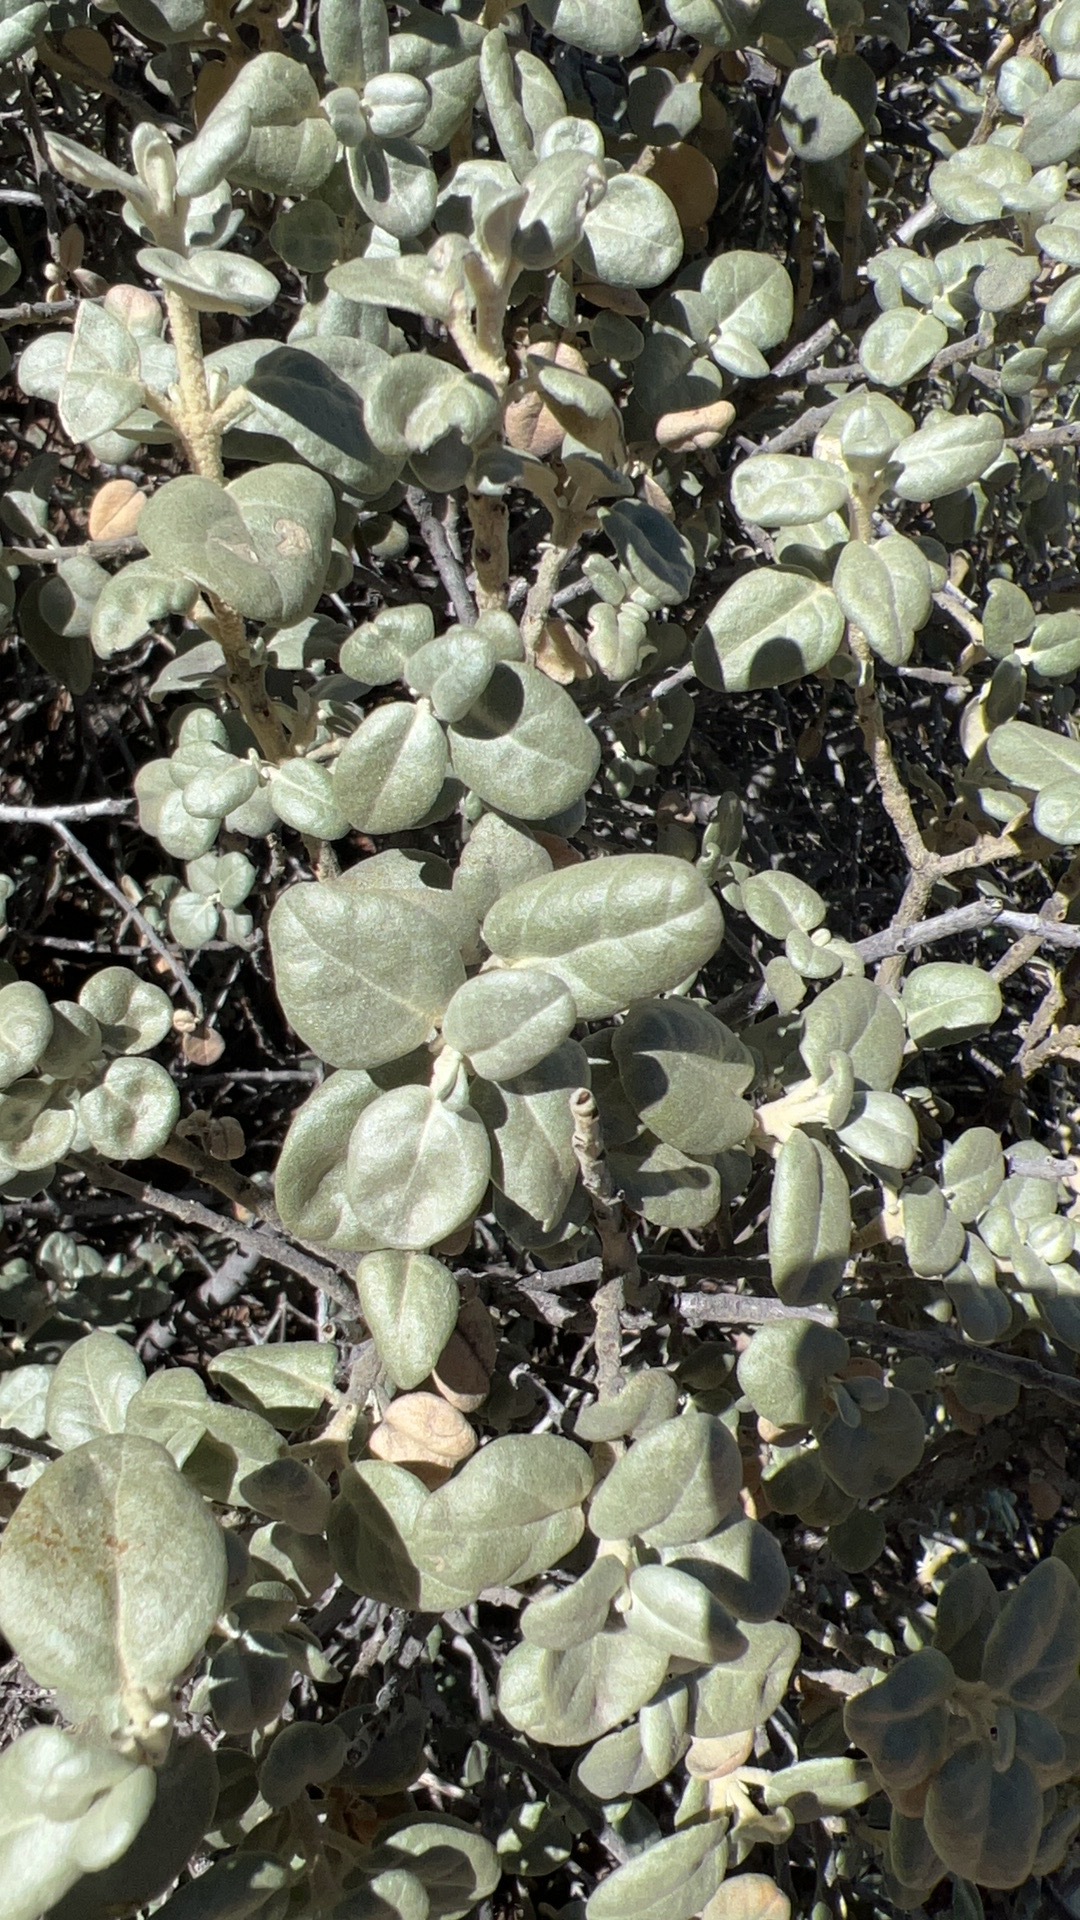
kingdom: Plantae
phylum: Tracheophyta
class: Magnoliopsida
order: Rosales
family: Elaeagnaceae
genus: Shepherdia
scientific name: Shepherdia rotundifolia
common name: Silverscale
